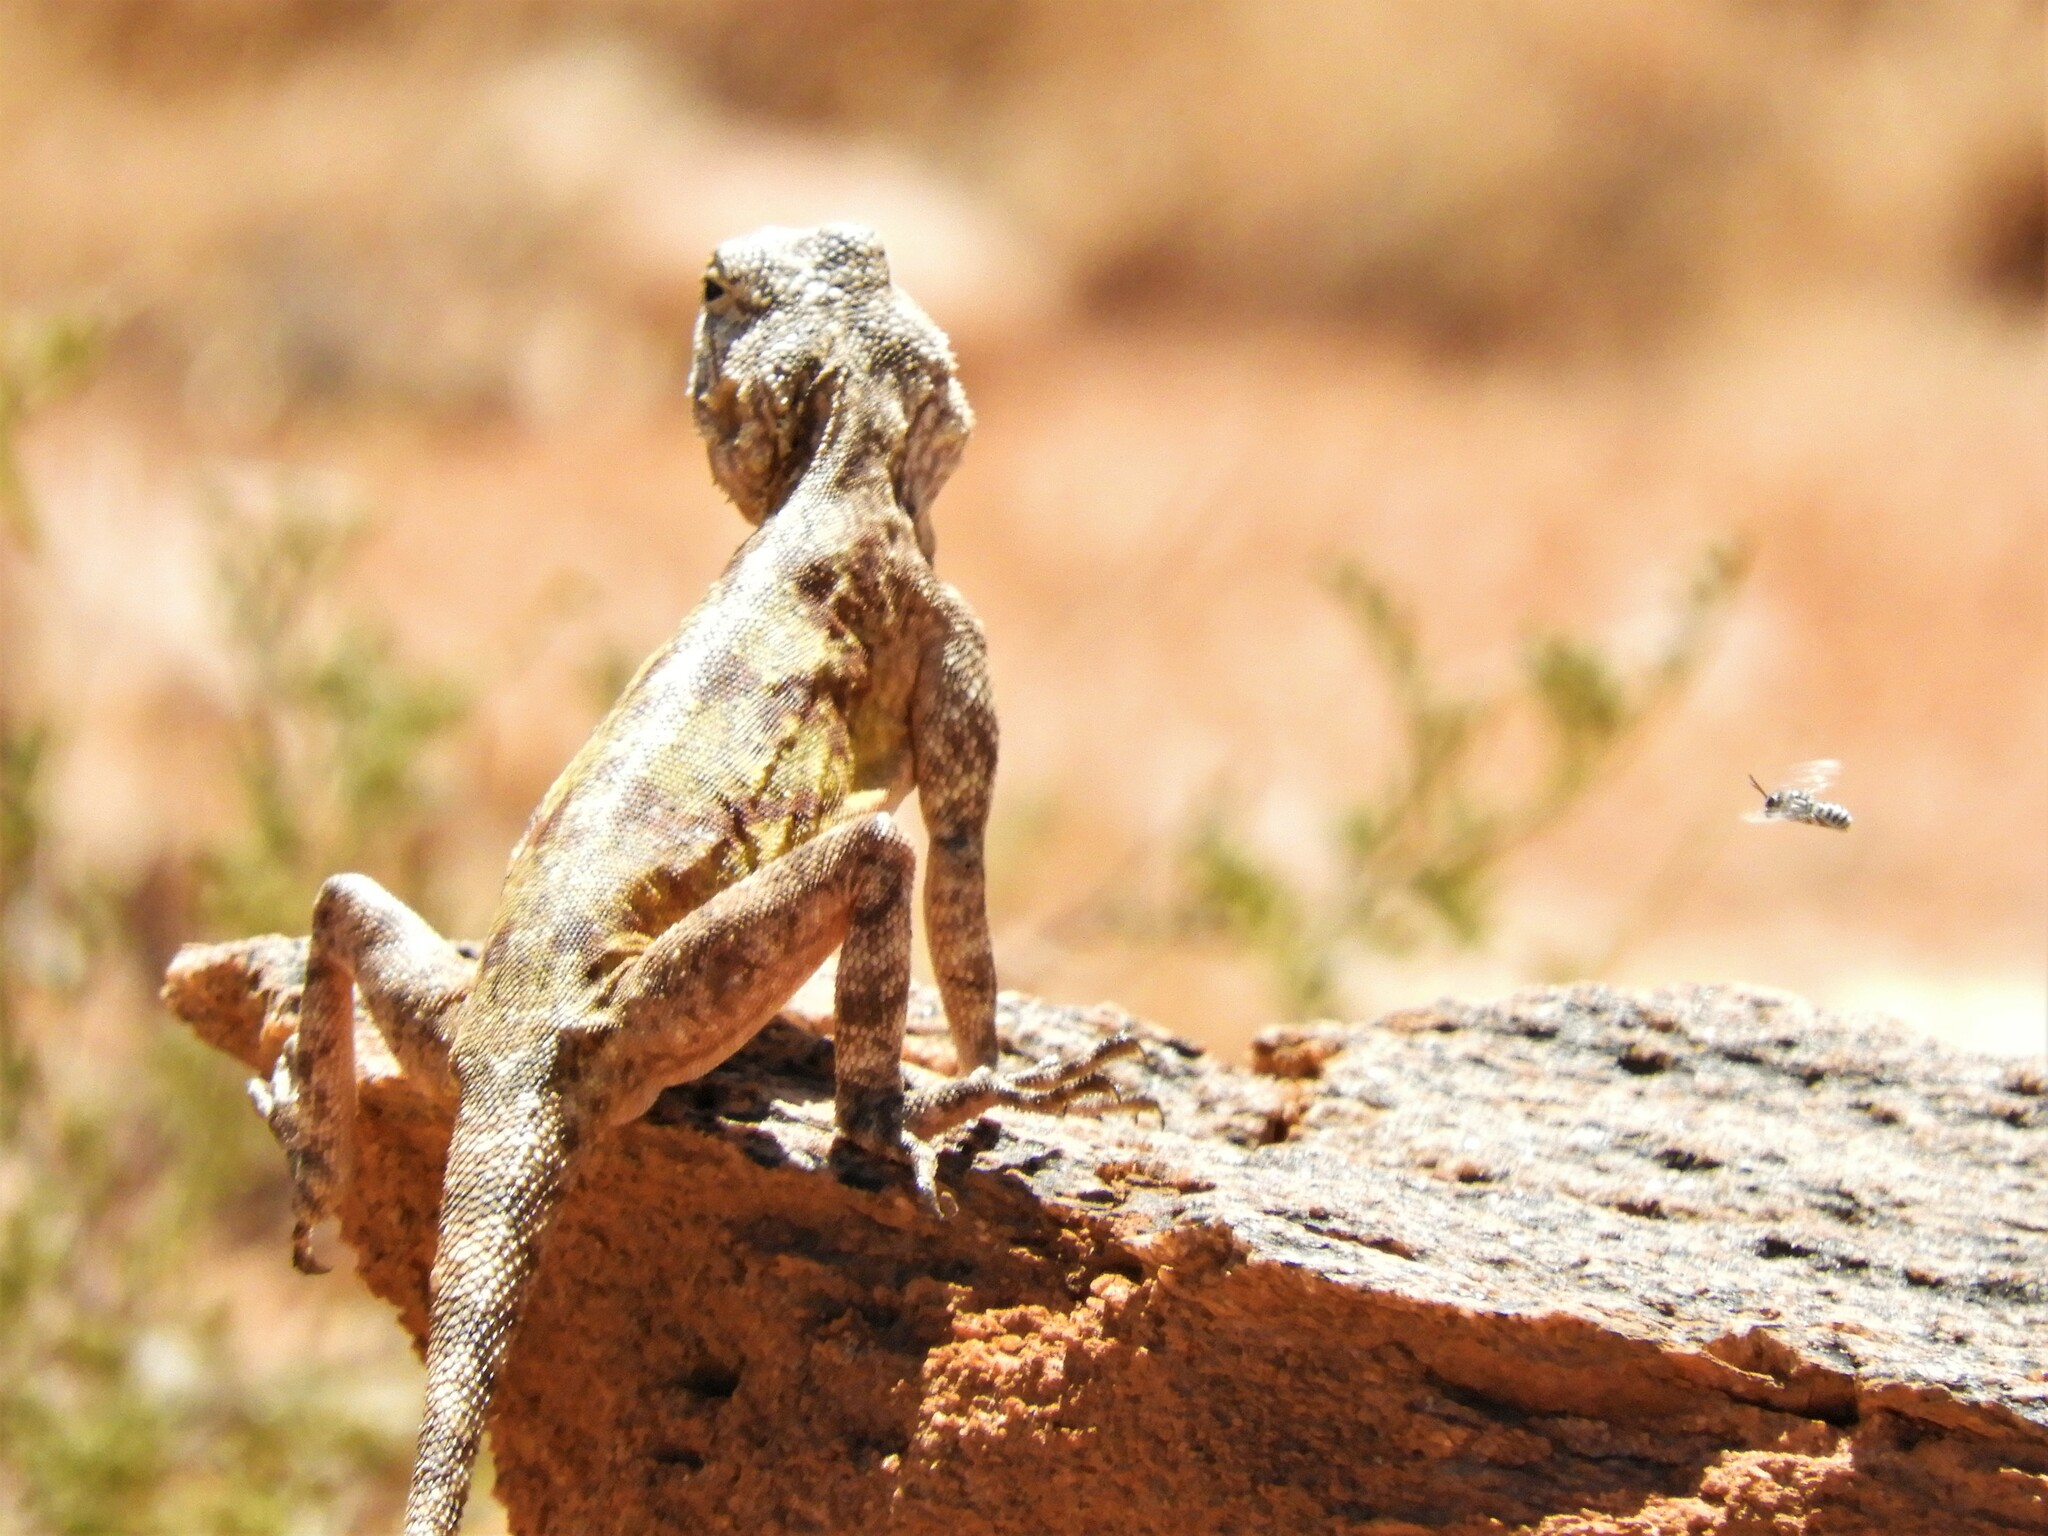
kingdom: Animalia
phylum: Chordata
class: Squamata
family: Agamidae
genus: Agama
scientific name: Agama atra
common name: Southern african rock agama
